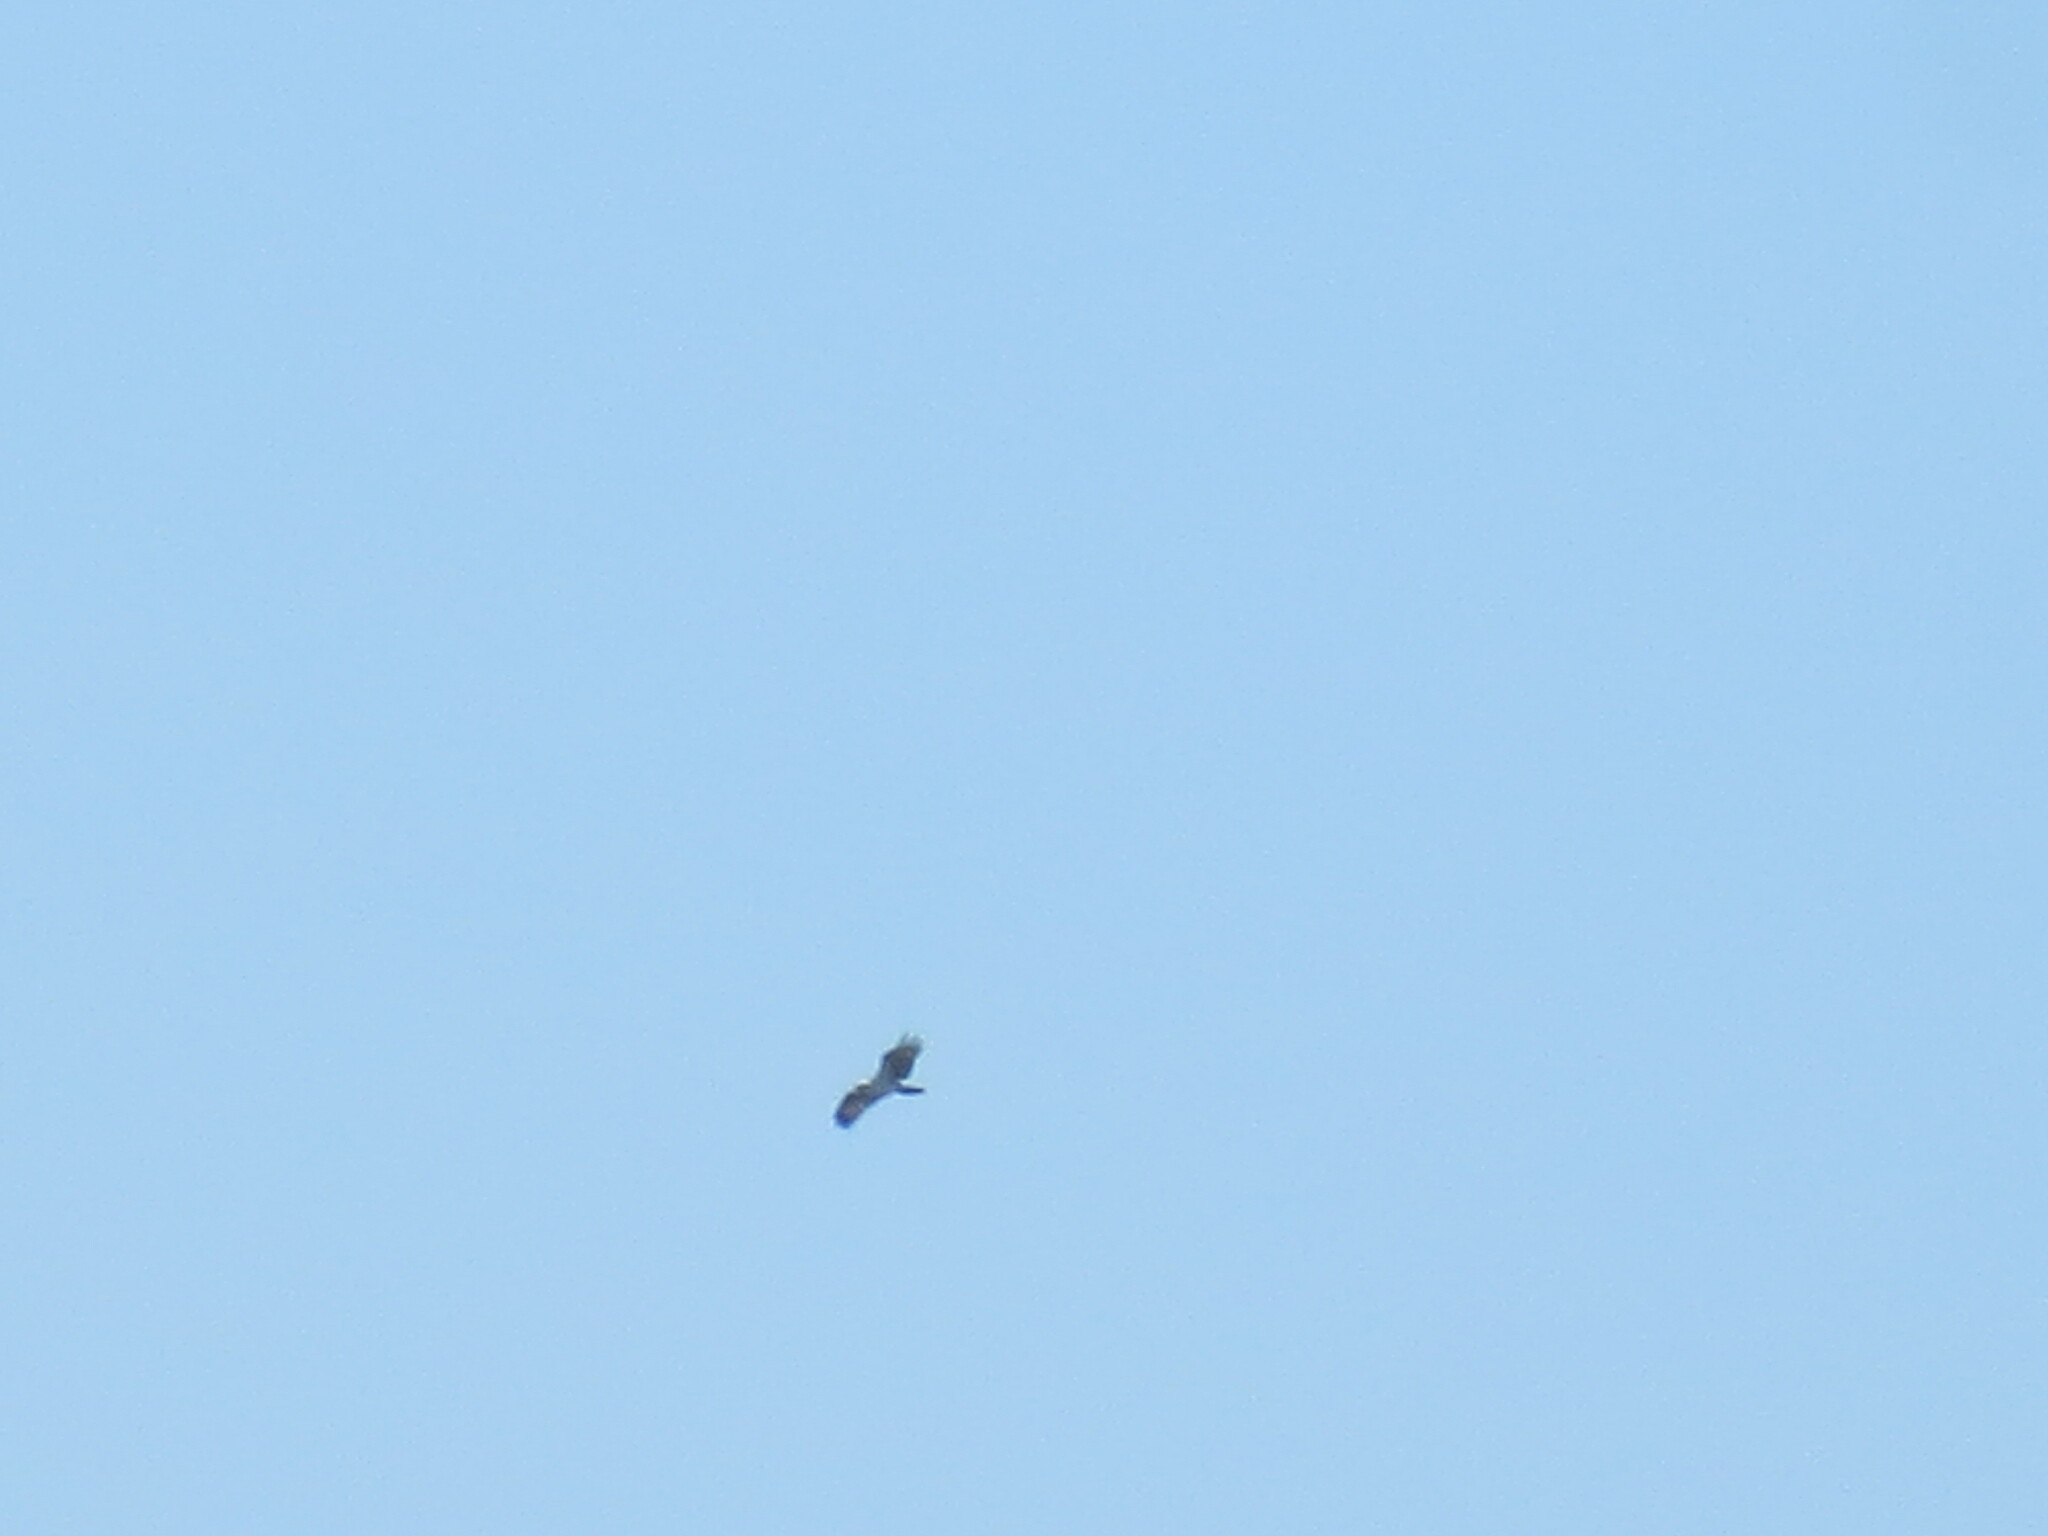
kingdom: Animalia
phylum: Chordata
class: Aves
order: Accipitriformes
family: Pandionidae
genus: Pandion
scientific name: Pandion haliaetus
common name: Osprey
